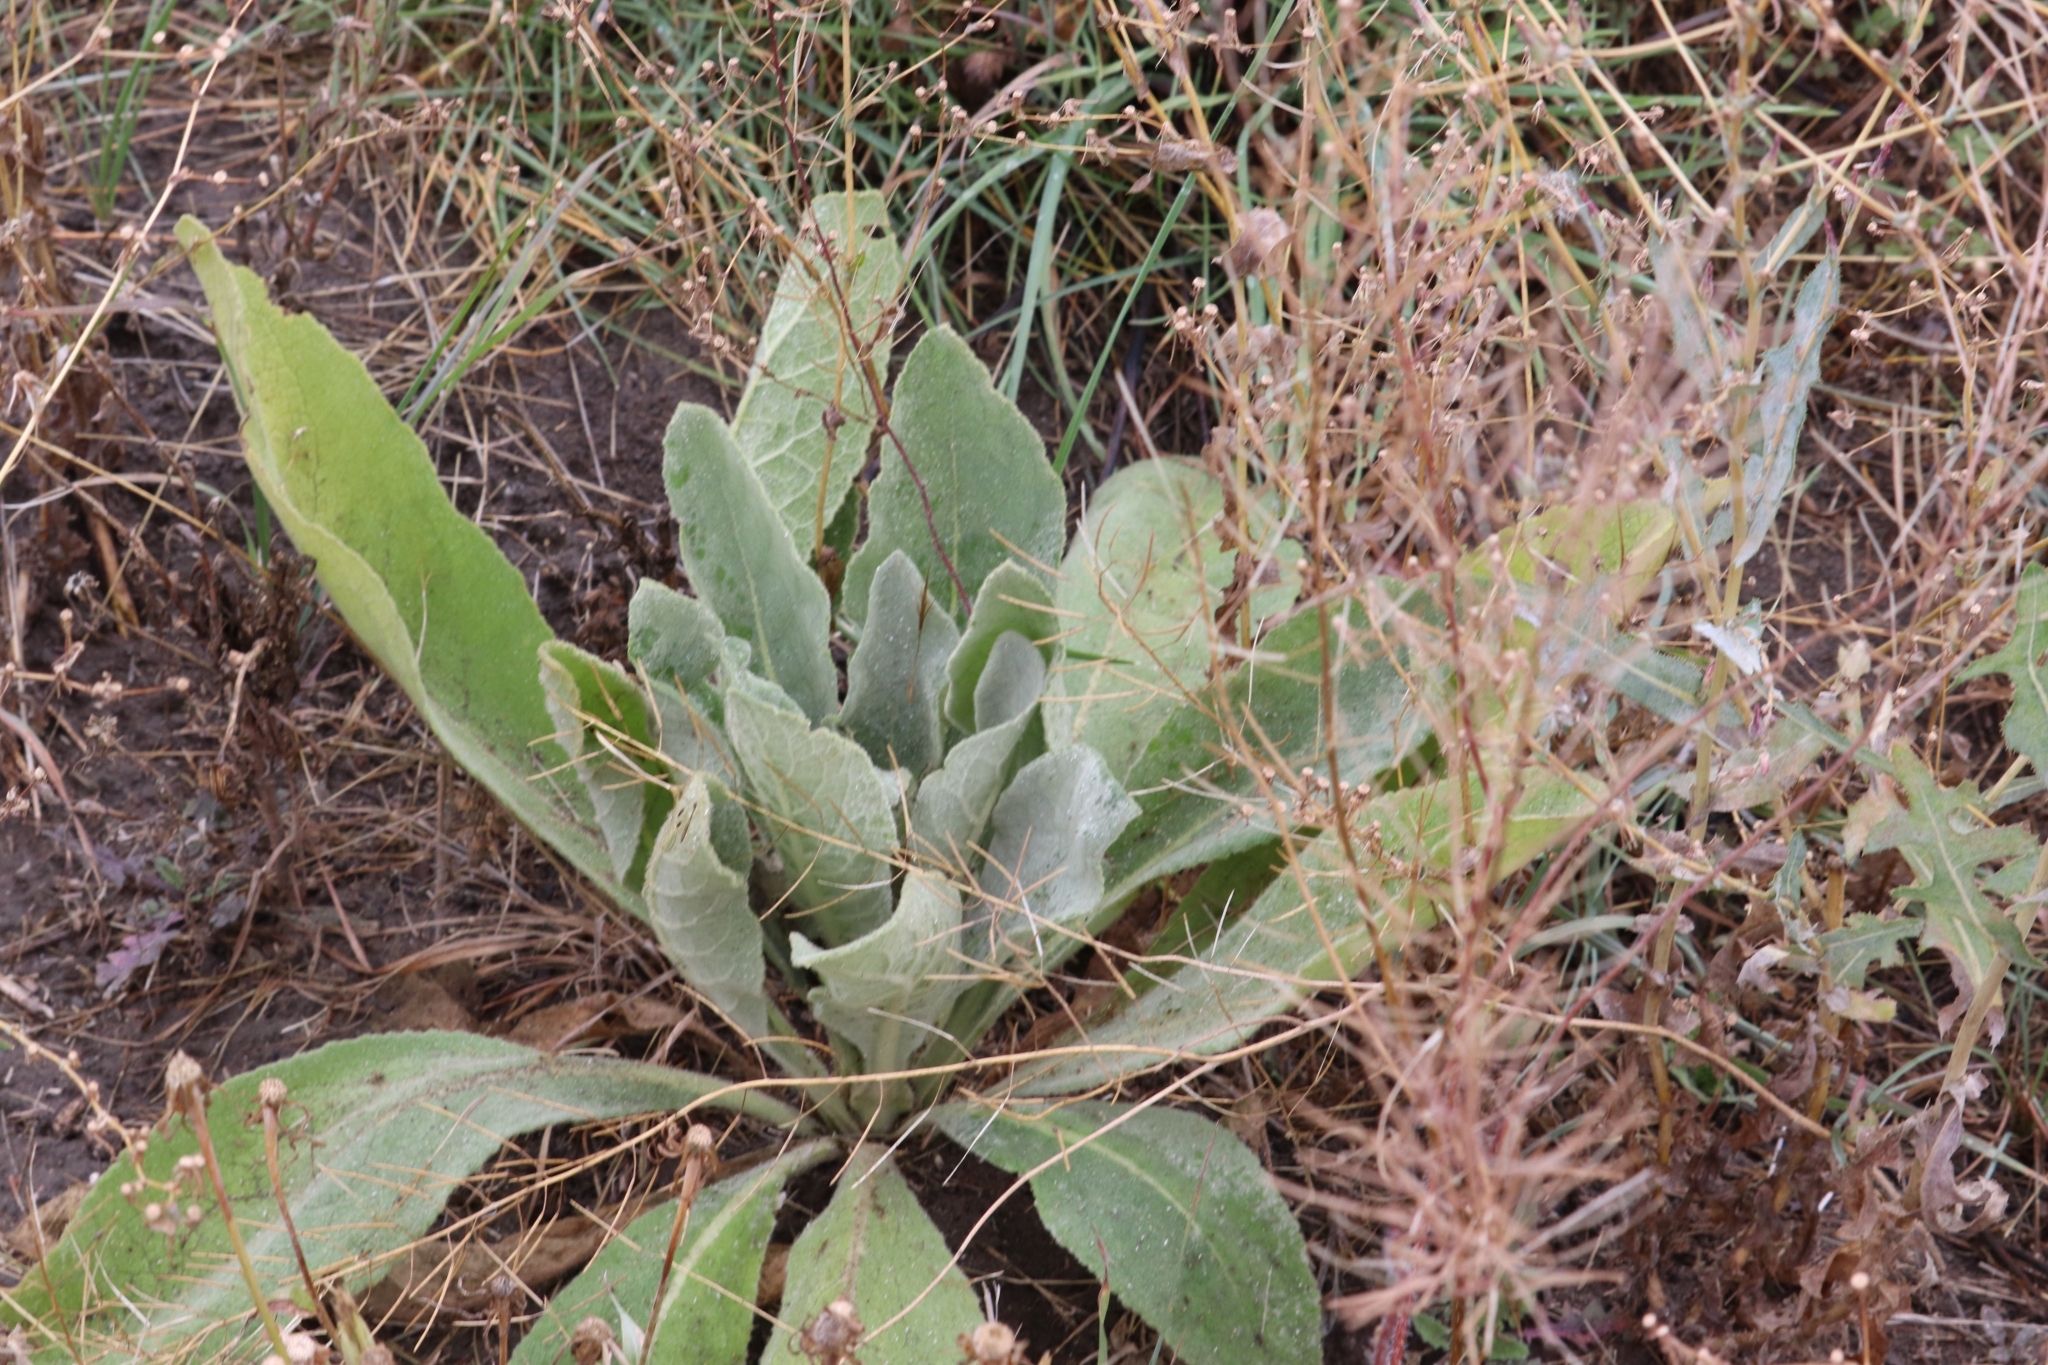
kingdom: Plantae
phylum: Tracheophyta
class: Magnoliopsida
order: Lamiales
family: Scrophulariaceae
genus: Verbascum
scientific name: Verbascum thapsus
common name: Common mullein
